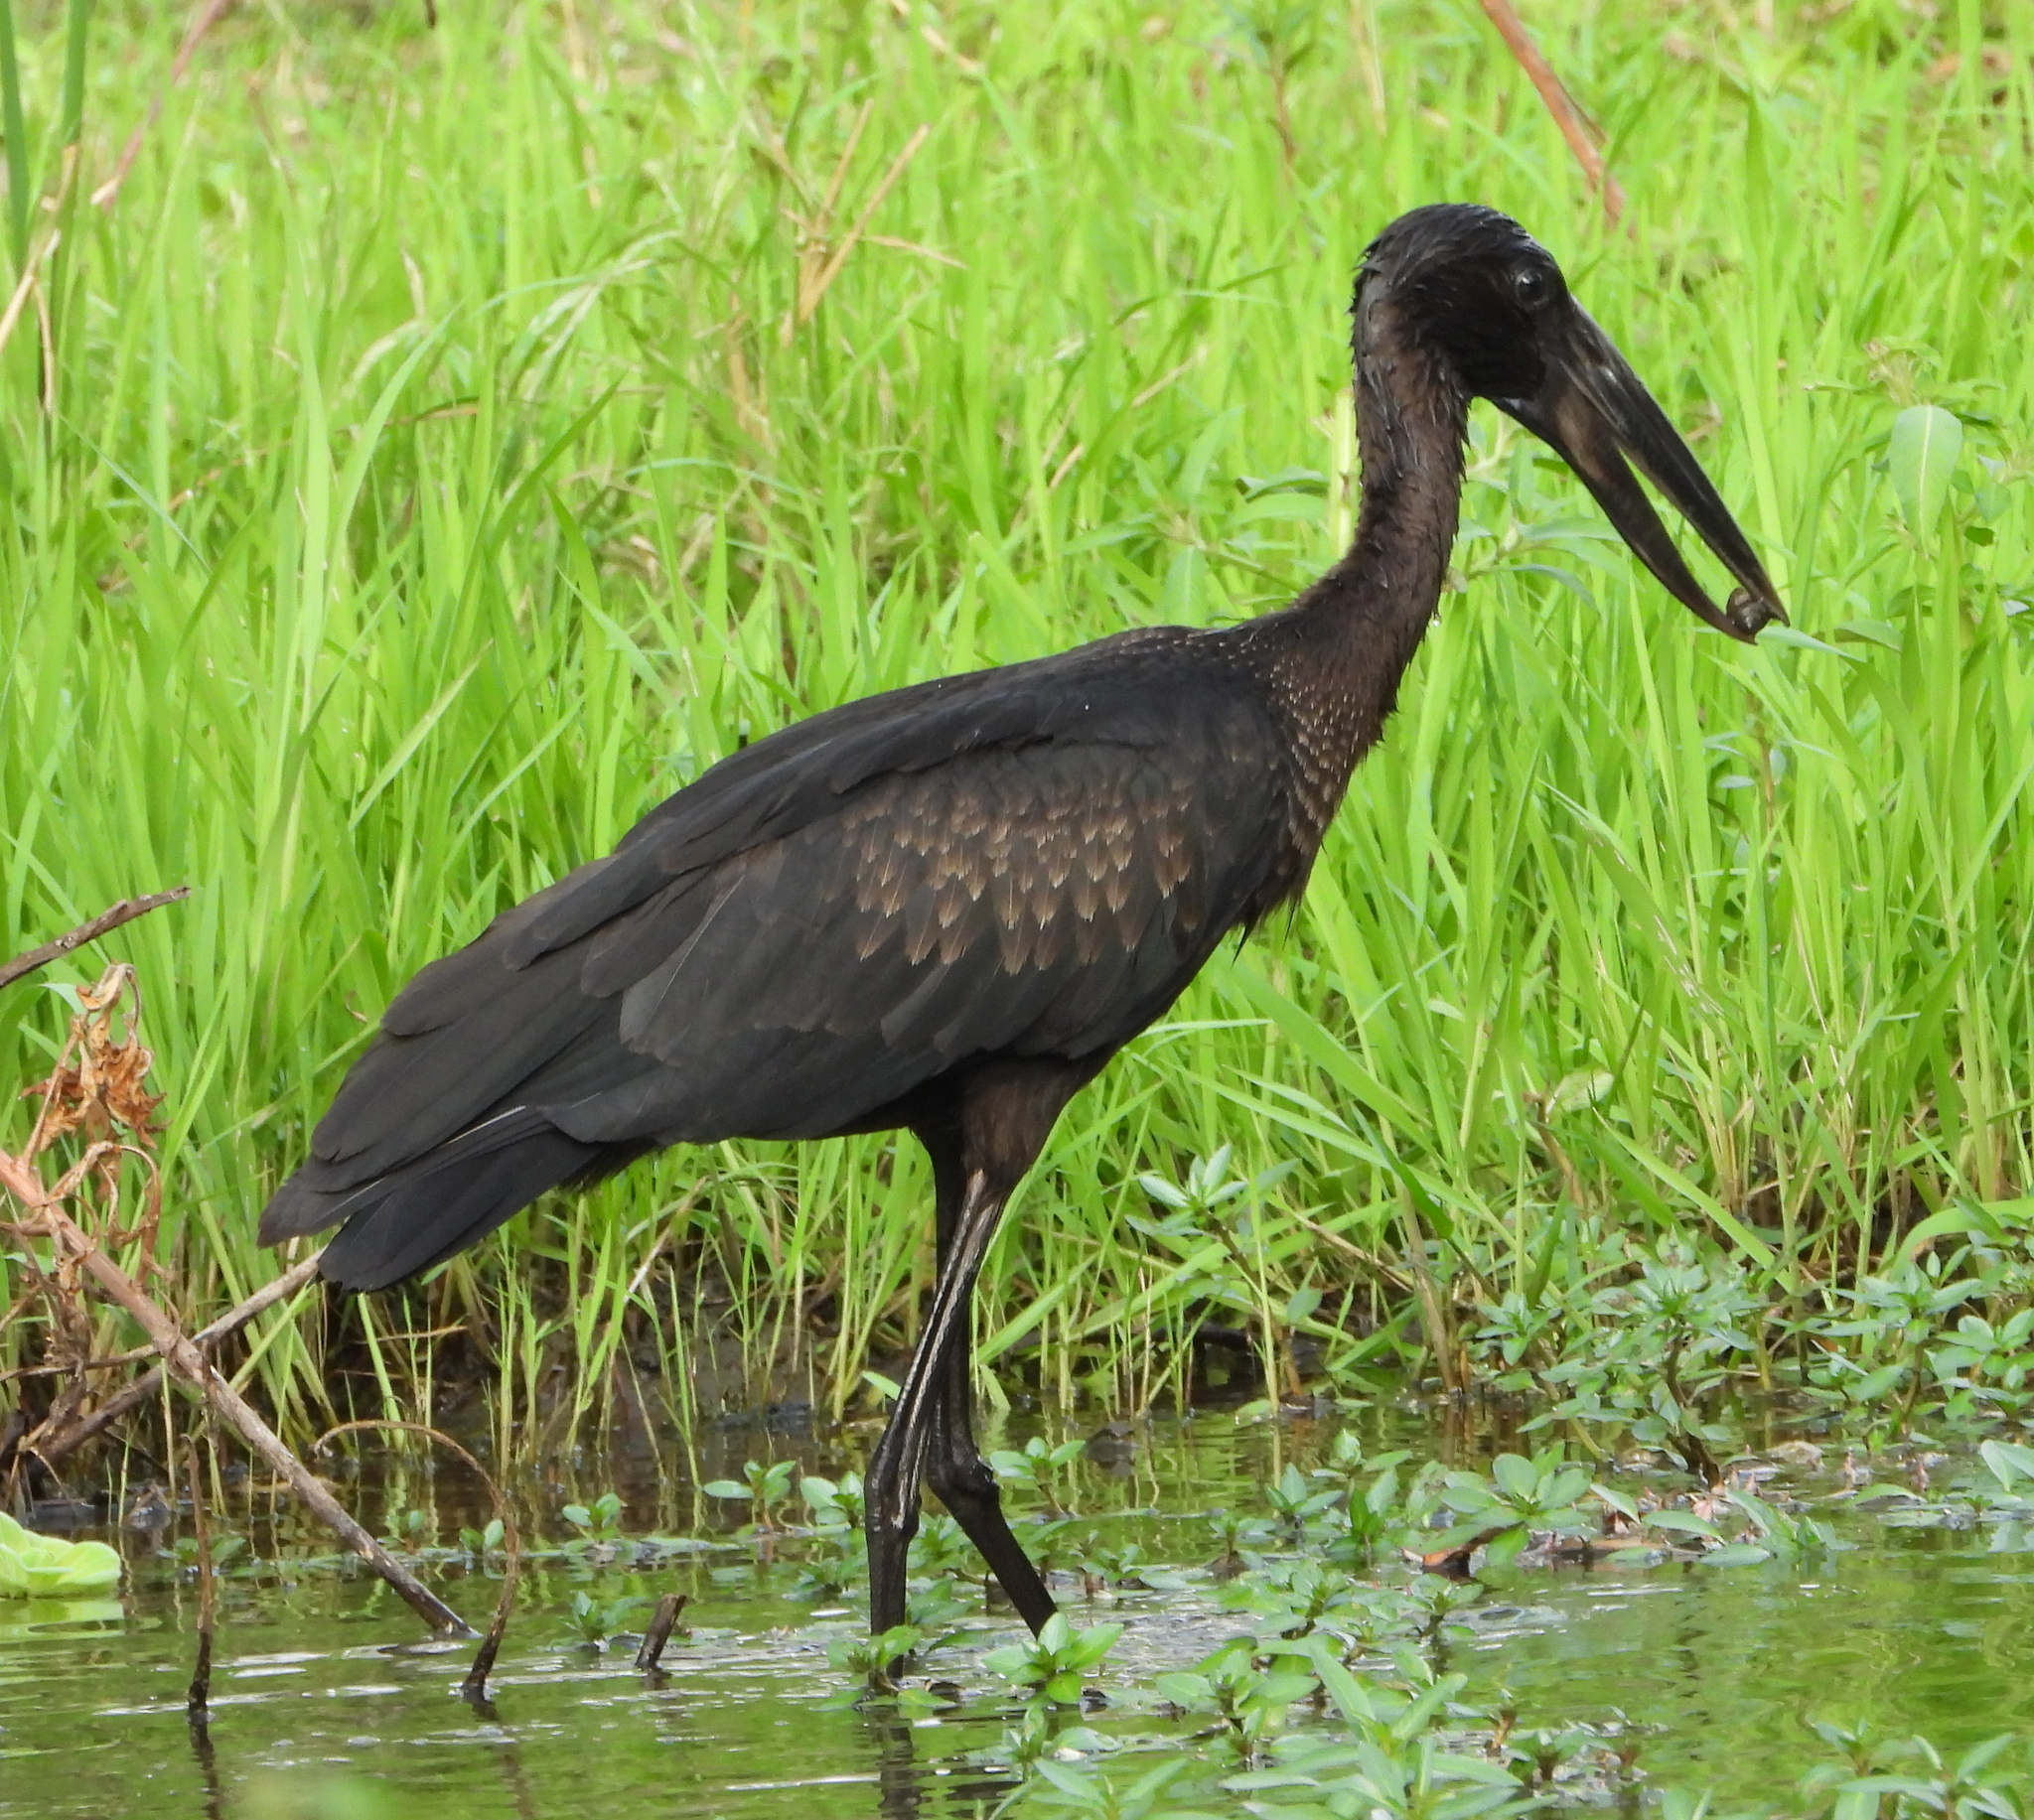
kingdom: Animalia
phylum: Chordata
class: Aves
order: Ciconiiformes
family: Ciconiidae
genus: Anastomus
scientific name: Anastomus lamelligerus
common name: African openbill
